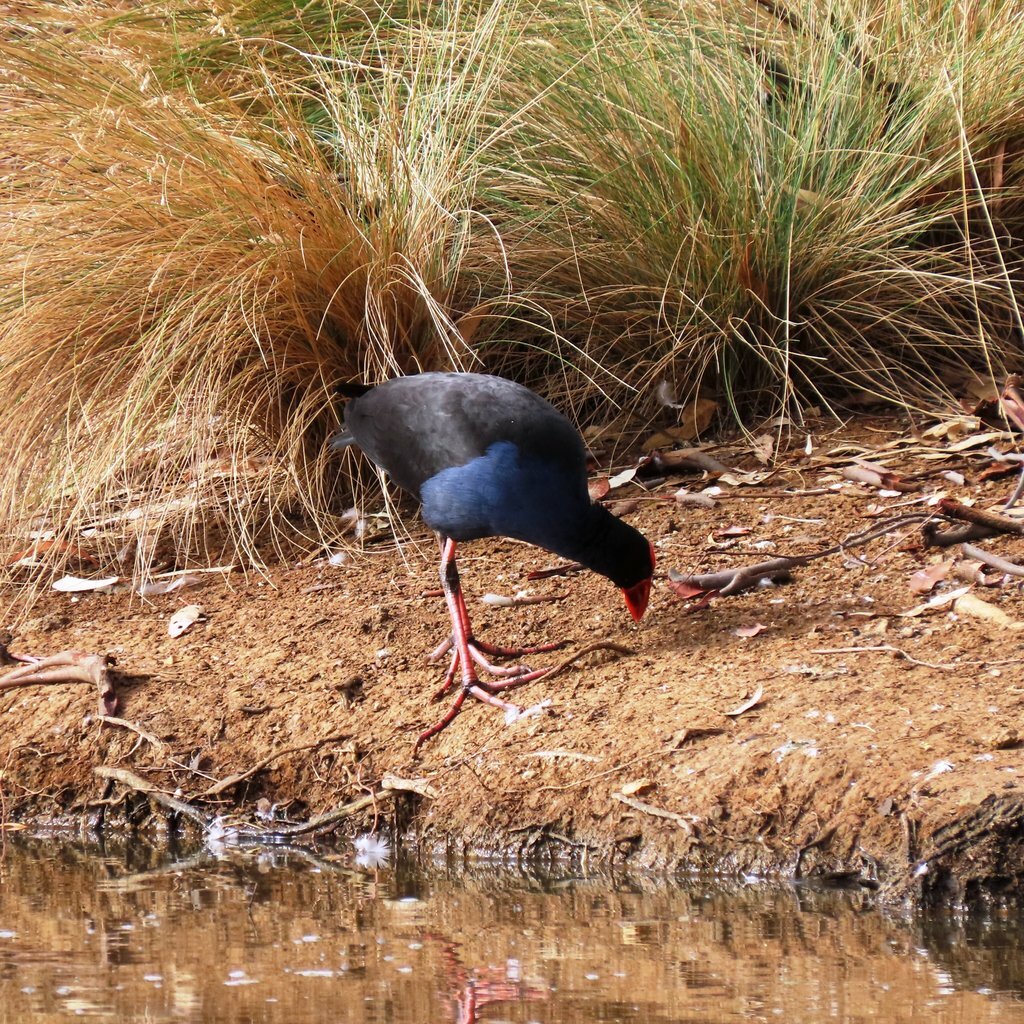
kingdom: Animalia
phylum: Chordata
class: Aves
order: Gruiformes
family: Rallidae
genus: Porphyrio
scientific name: Porphyrio melanotus
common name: Australasian swamphen
